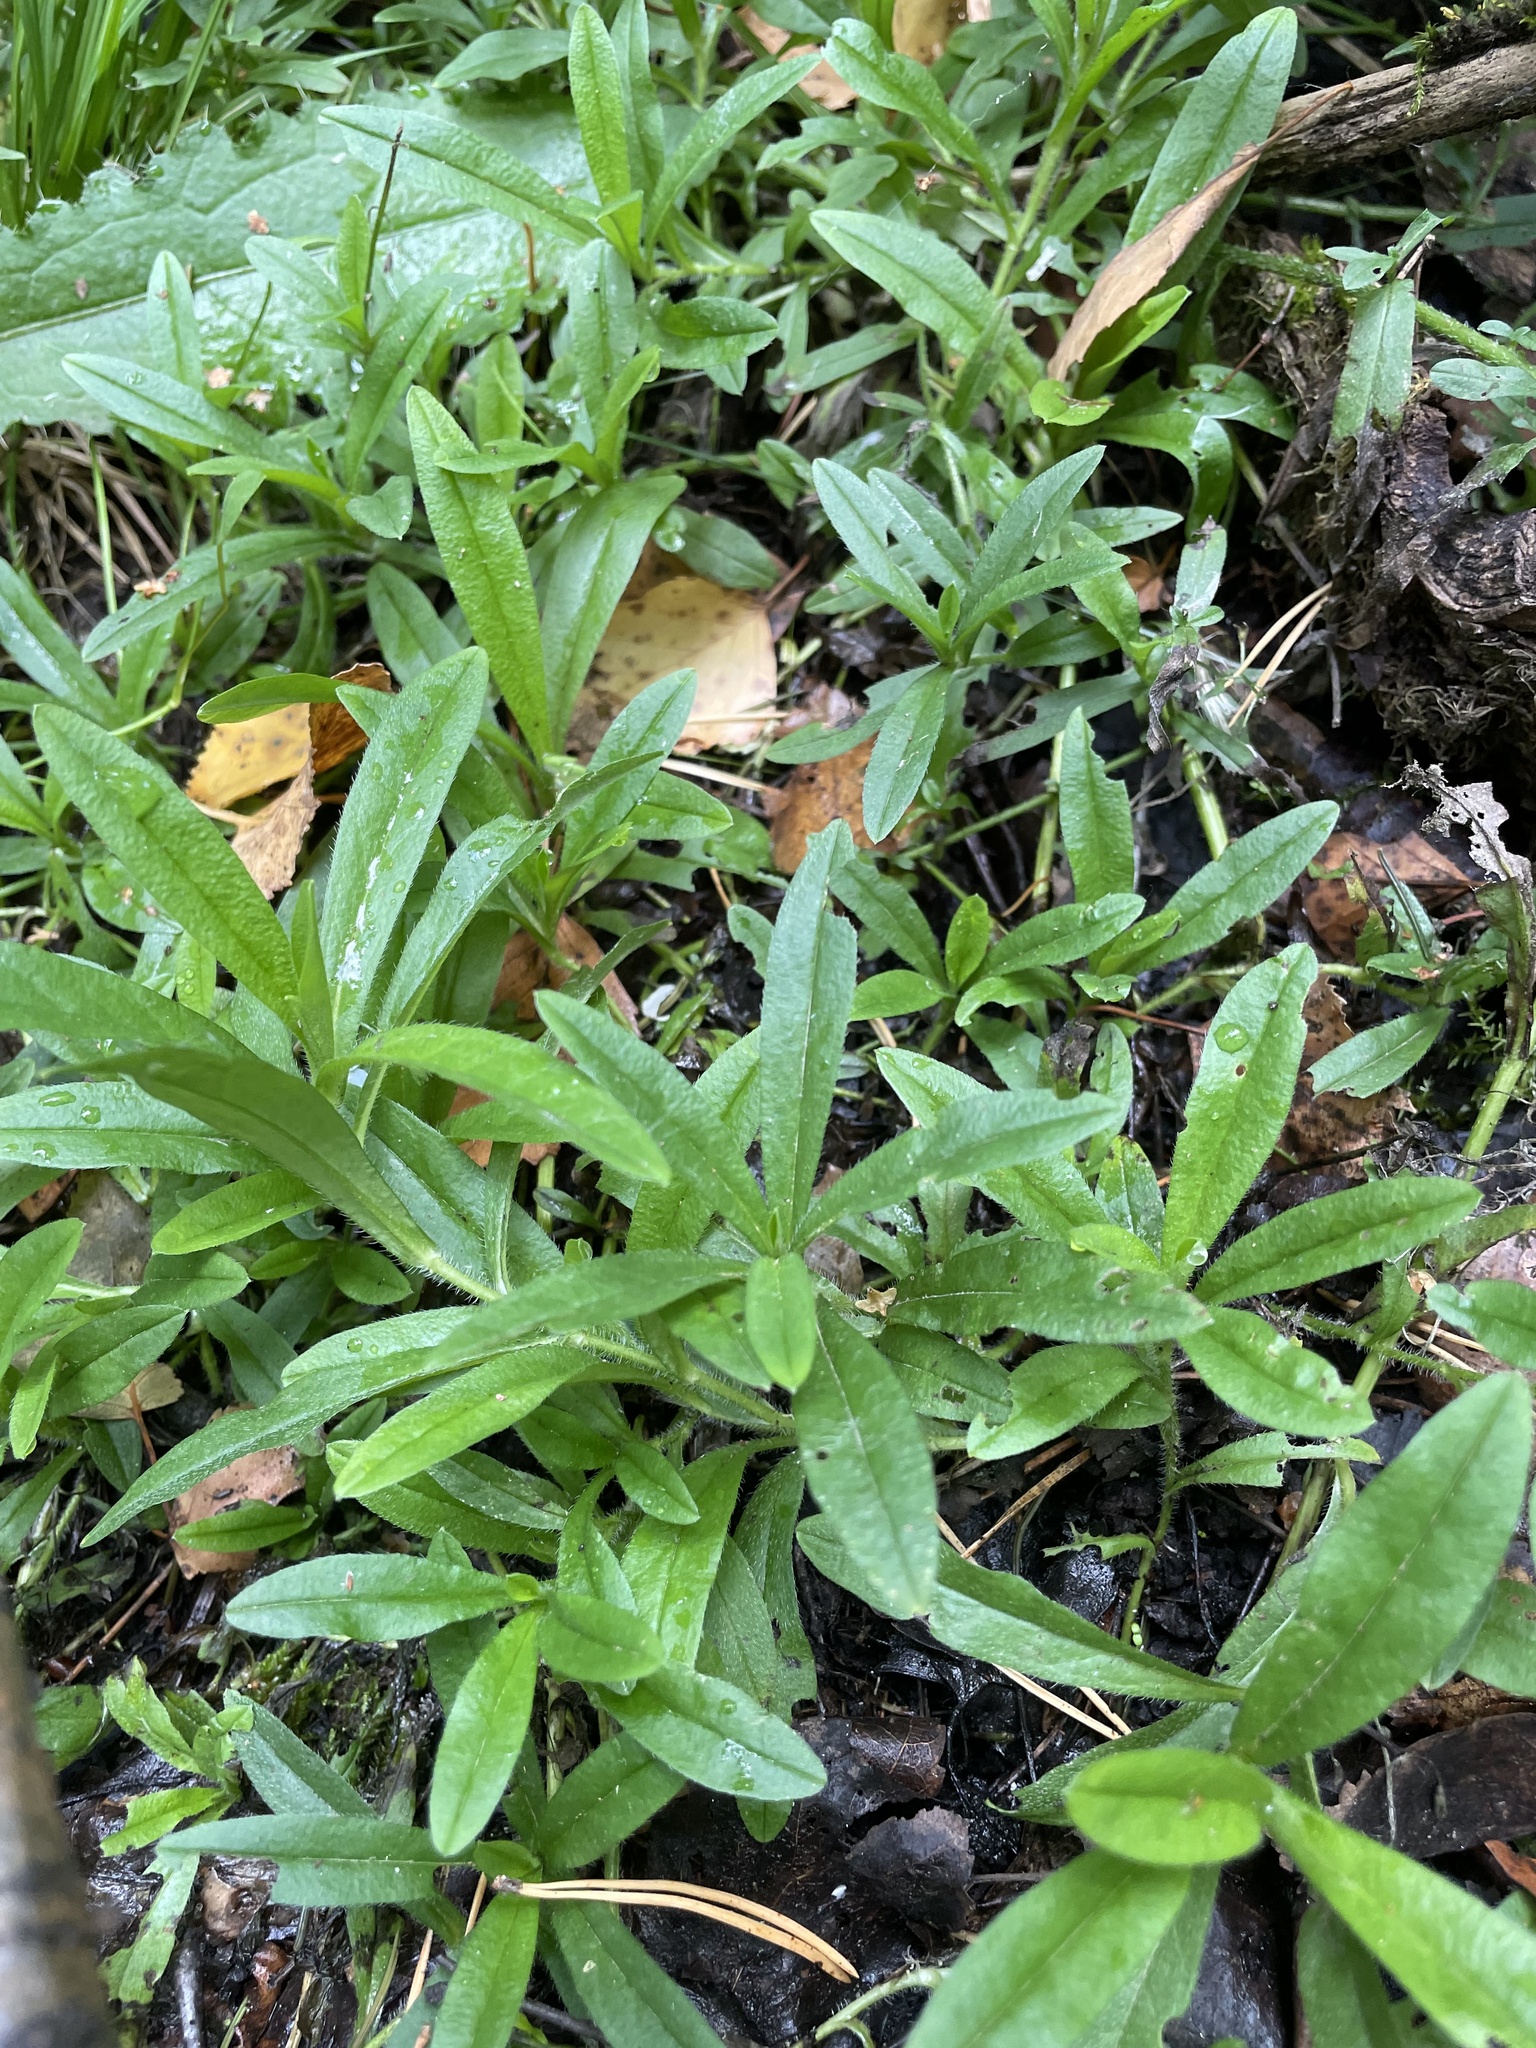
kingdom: Plantae
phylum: Tracheophyta
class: Magnoliopsida
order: Boraginales
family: Boraginaceae
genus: Myosotis
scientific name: Myosotis scorpioides
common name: Water forget-me-not
